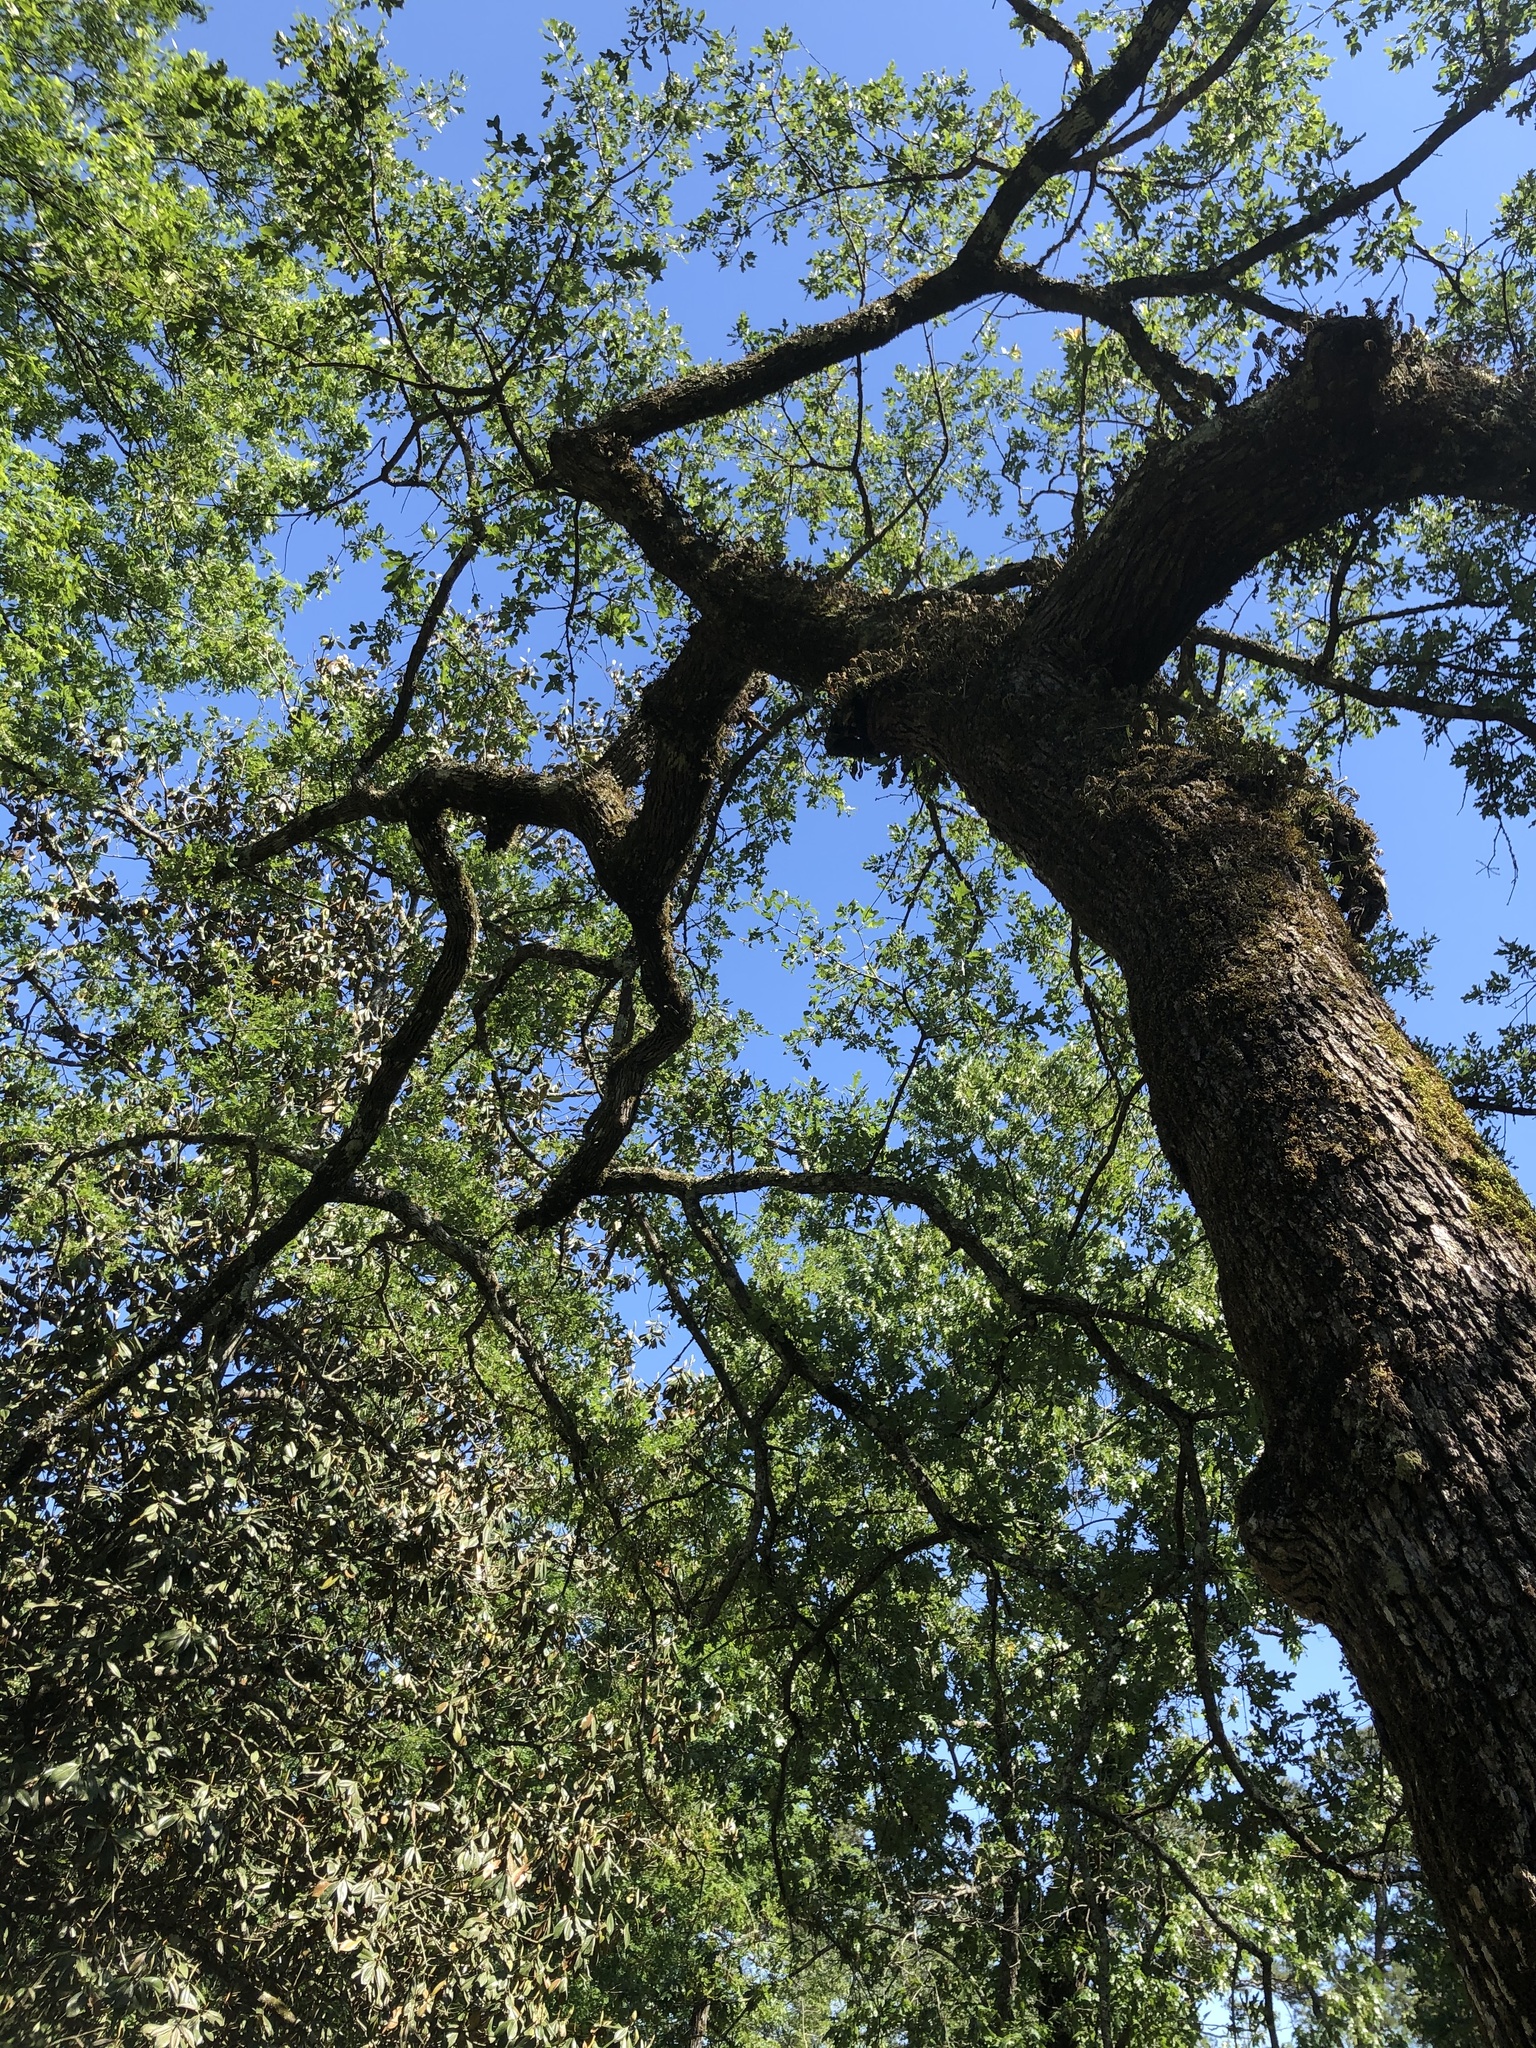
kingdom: Plantae
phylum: Tracheophyta
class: Magnoliopsida
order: Fagales
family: Fagaceae
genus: Quercus
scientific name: Quercus margaretiae
